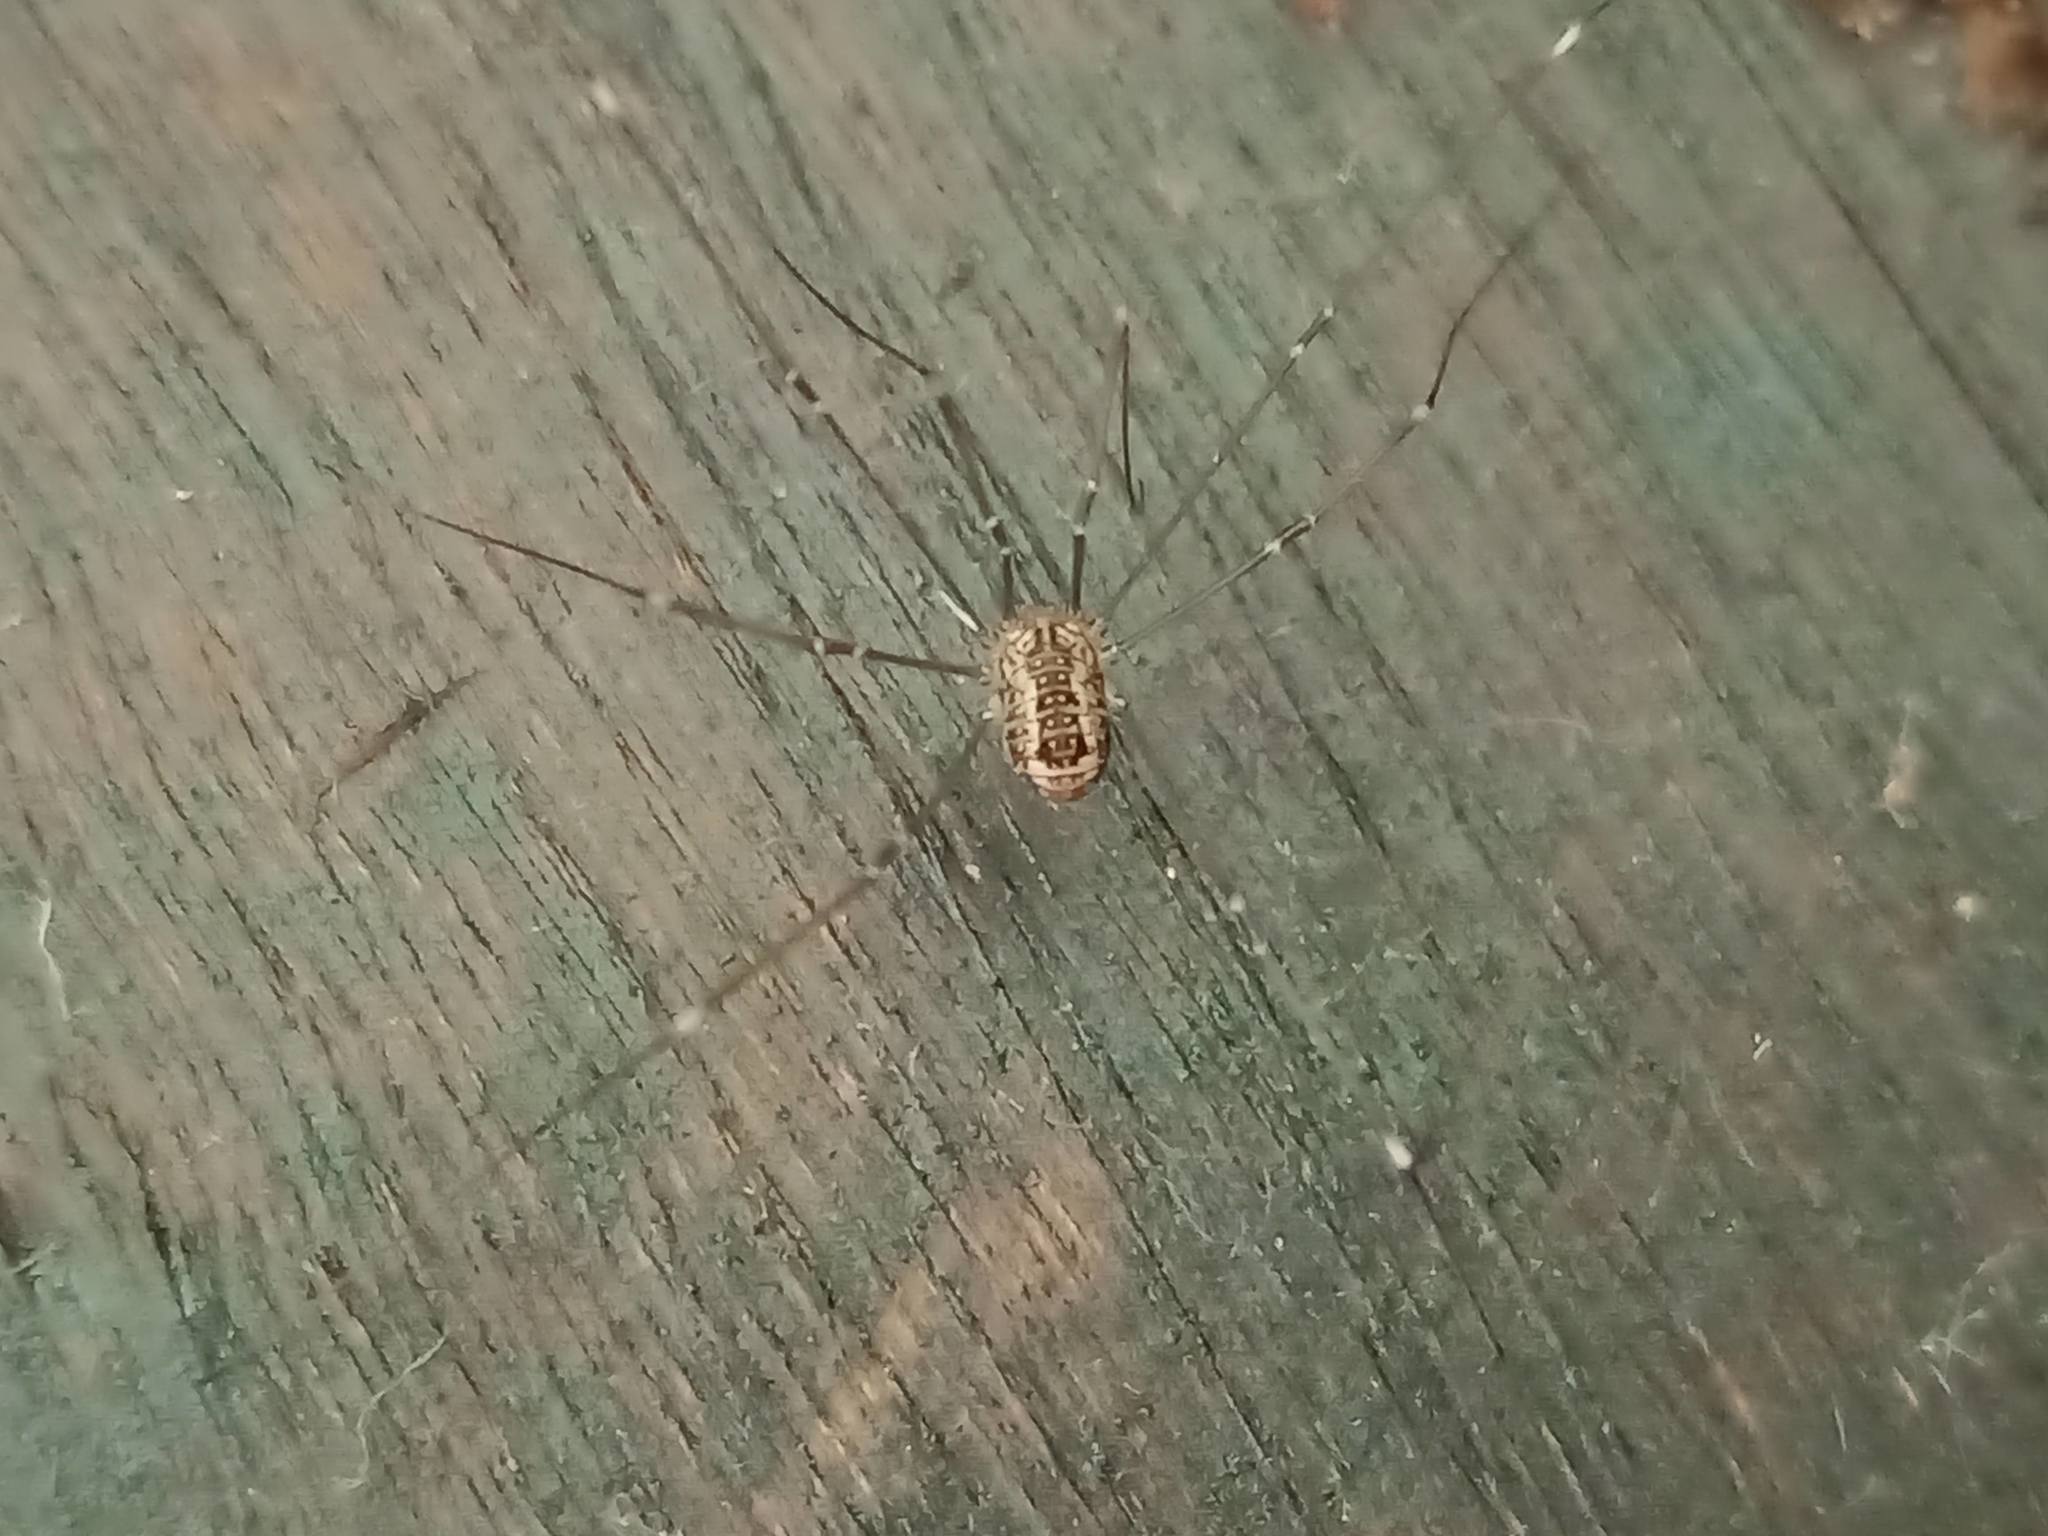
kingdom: Animalia
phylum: Arthropoda
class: Arachnida
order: Opiliones
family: Sclerosomatidae
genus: Leiobunum
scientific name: Leiobunum rotundum
